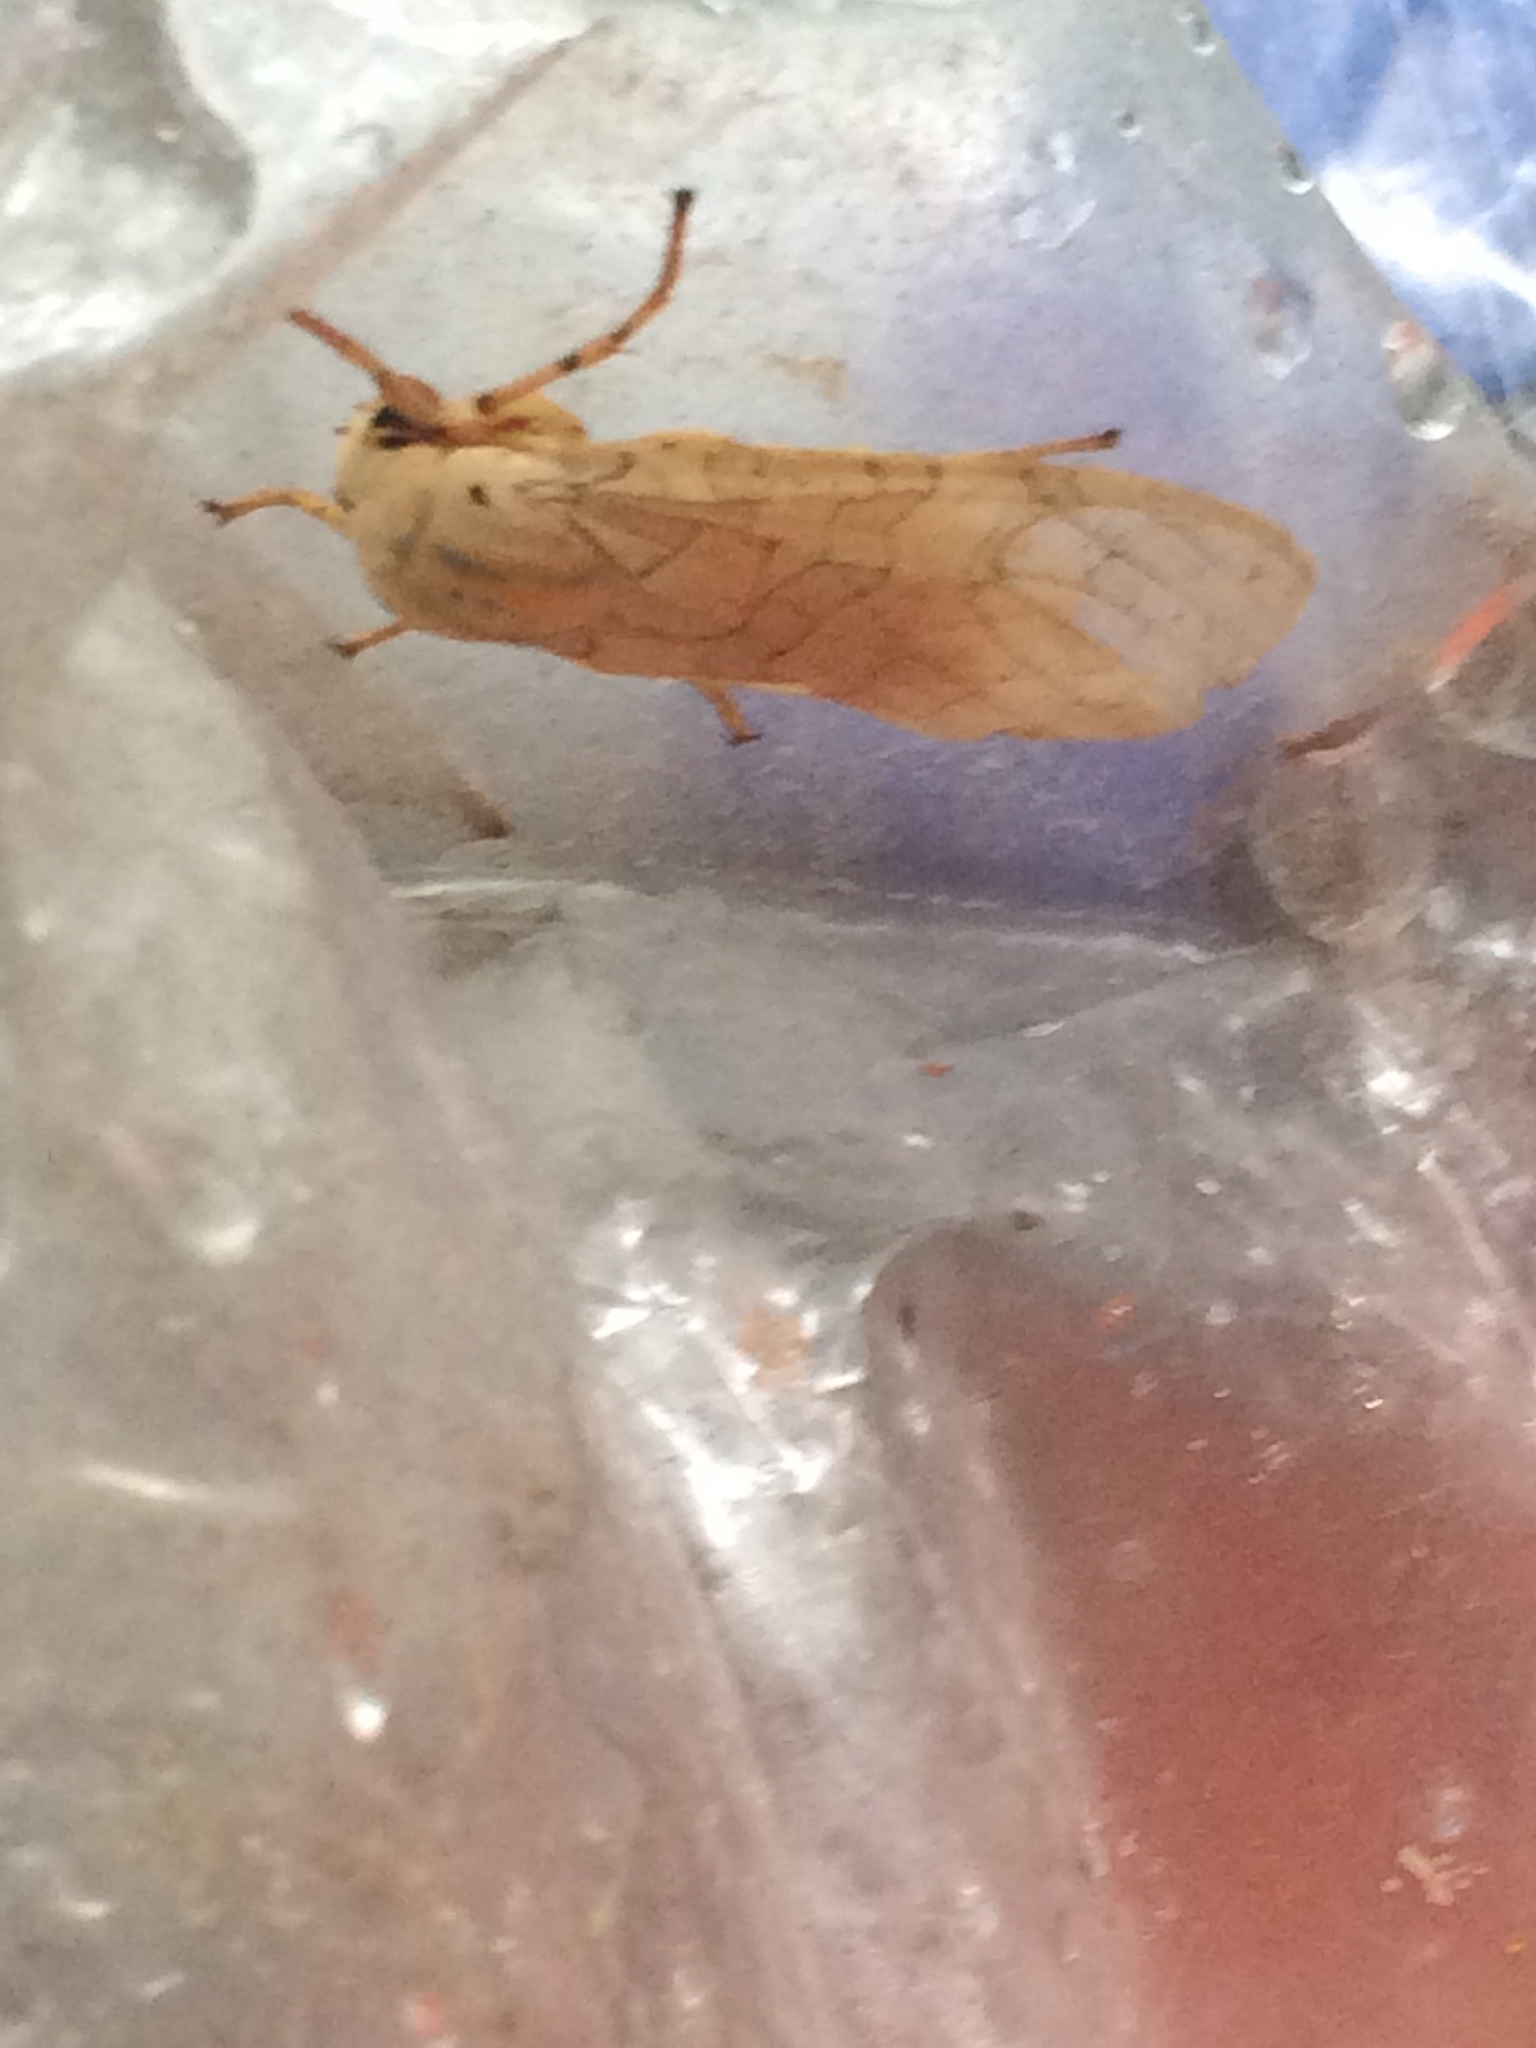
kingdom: Animalia
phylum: Arthropoda
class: Insecta
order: Lepidoptera
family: Erebidae
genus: Halysidota
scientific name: Halysidota
